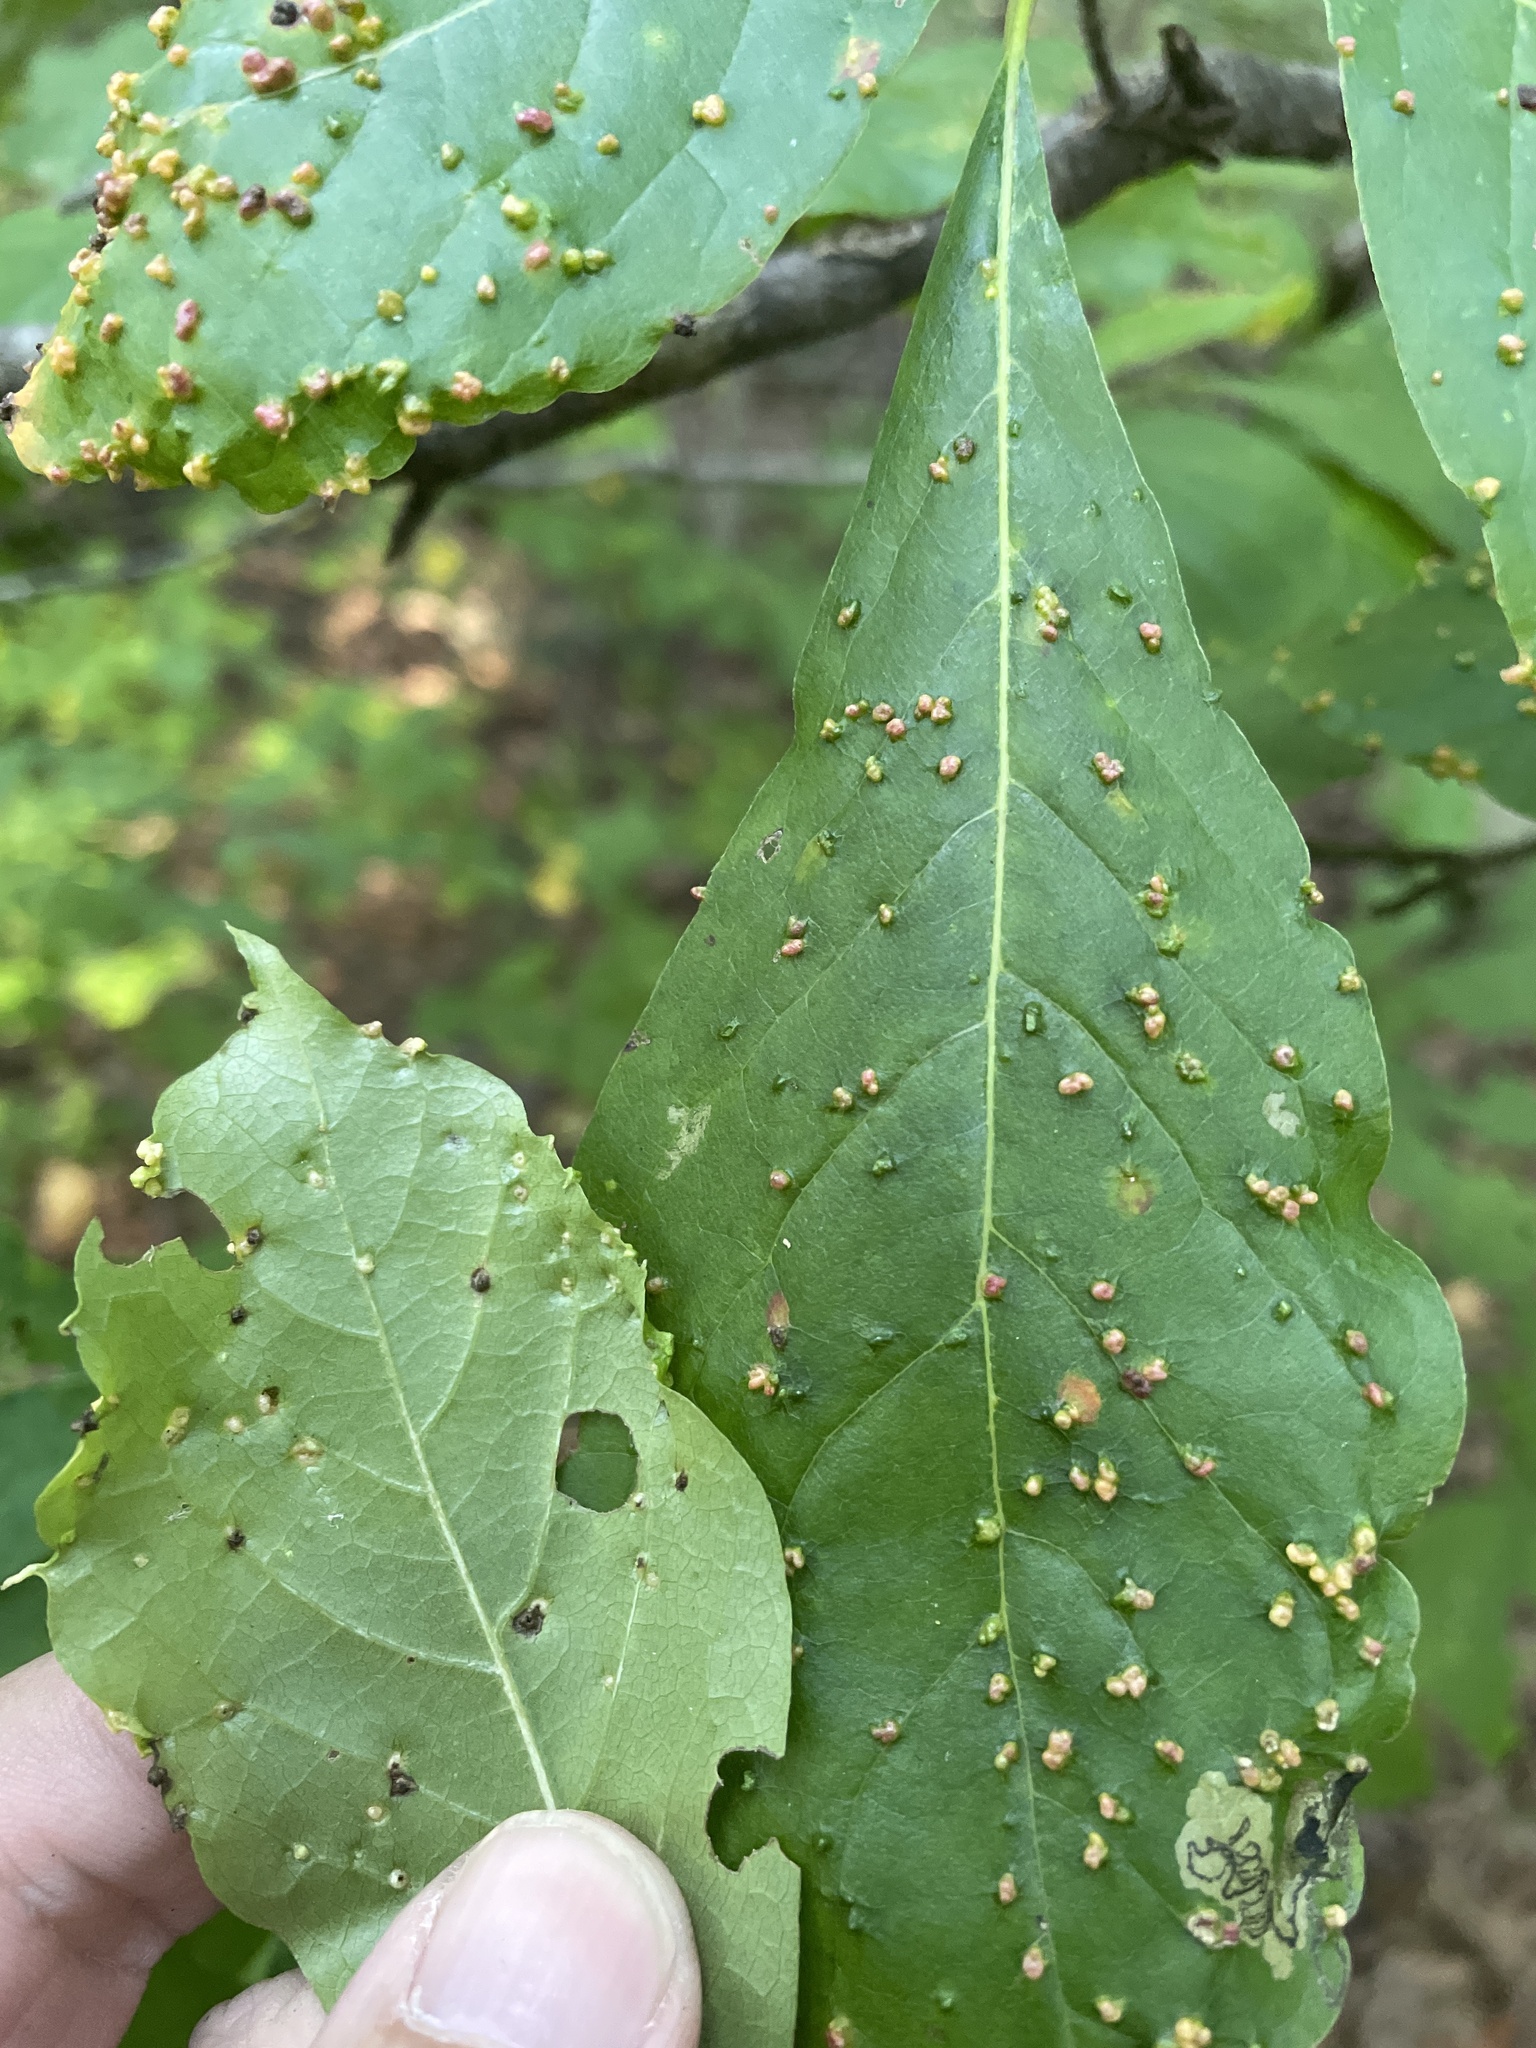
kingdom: Animalia
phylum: Arthropoda
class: Arachnida
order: Trombidiformes
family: Eriophyidae
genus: Aceria
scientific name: Aceria
